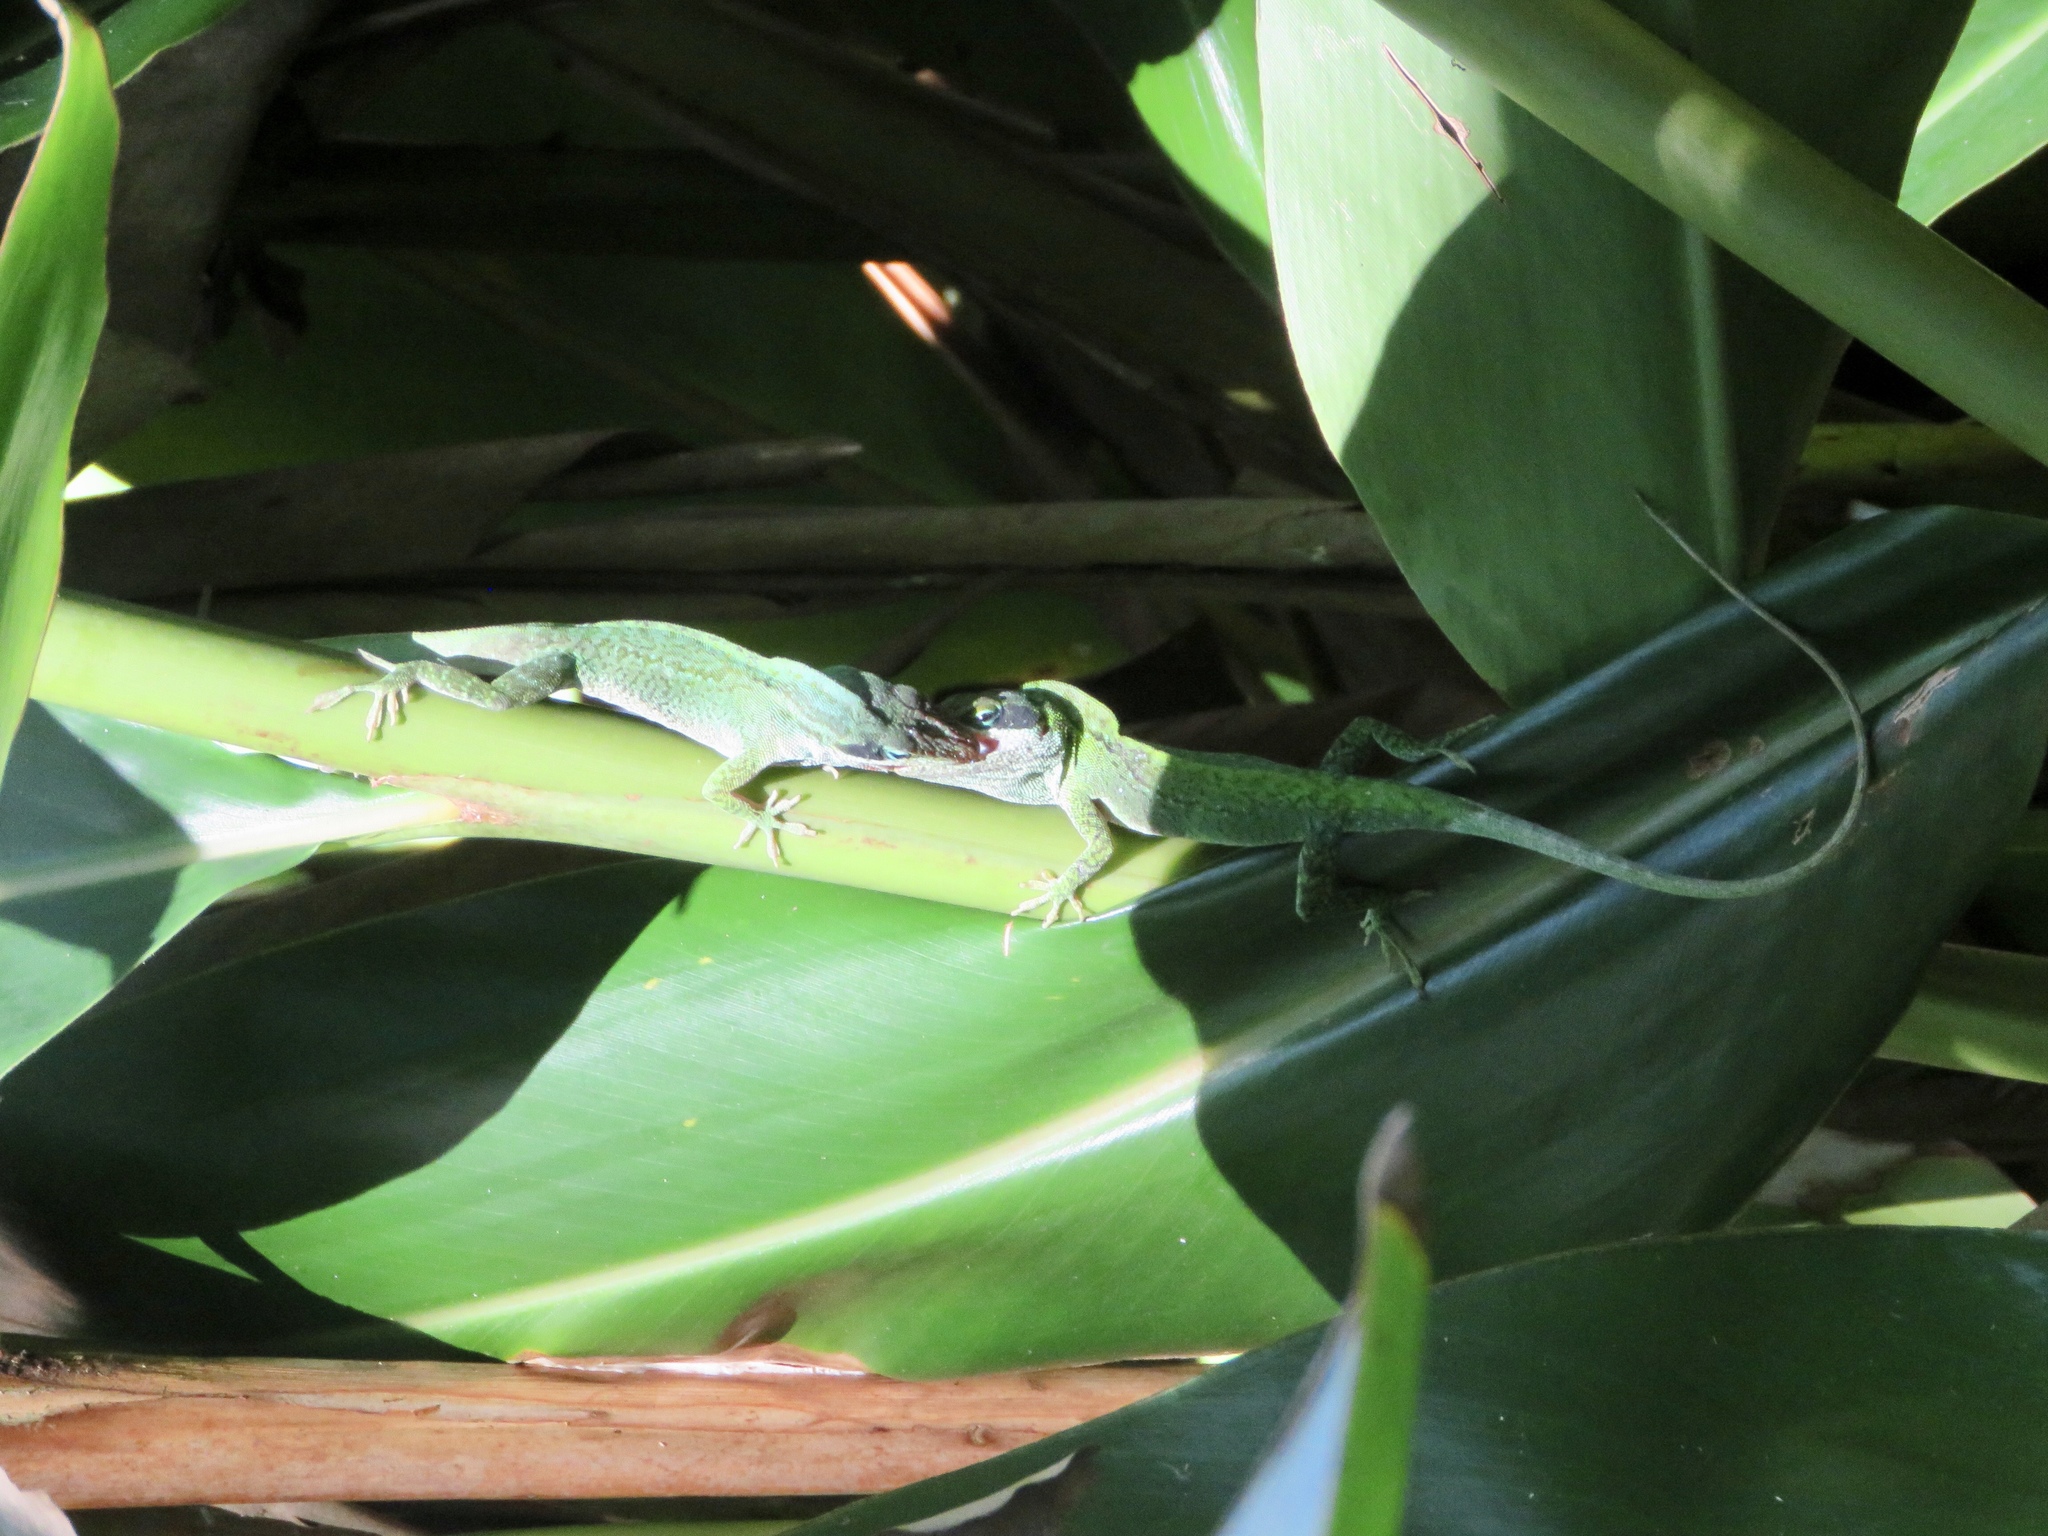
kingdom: Animalia
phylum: Chordata
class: Squamata
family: Dactyloidae
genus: Anolis
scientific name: Anolis carolinensis
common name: Green anole
